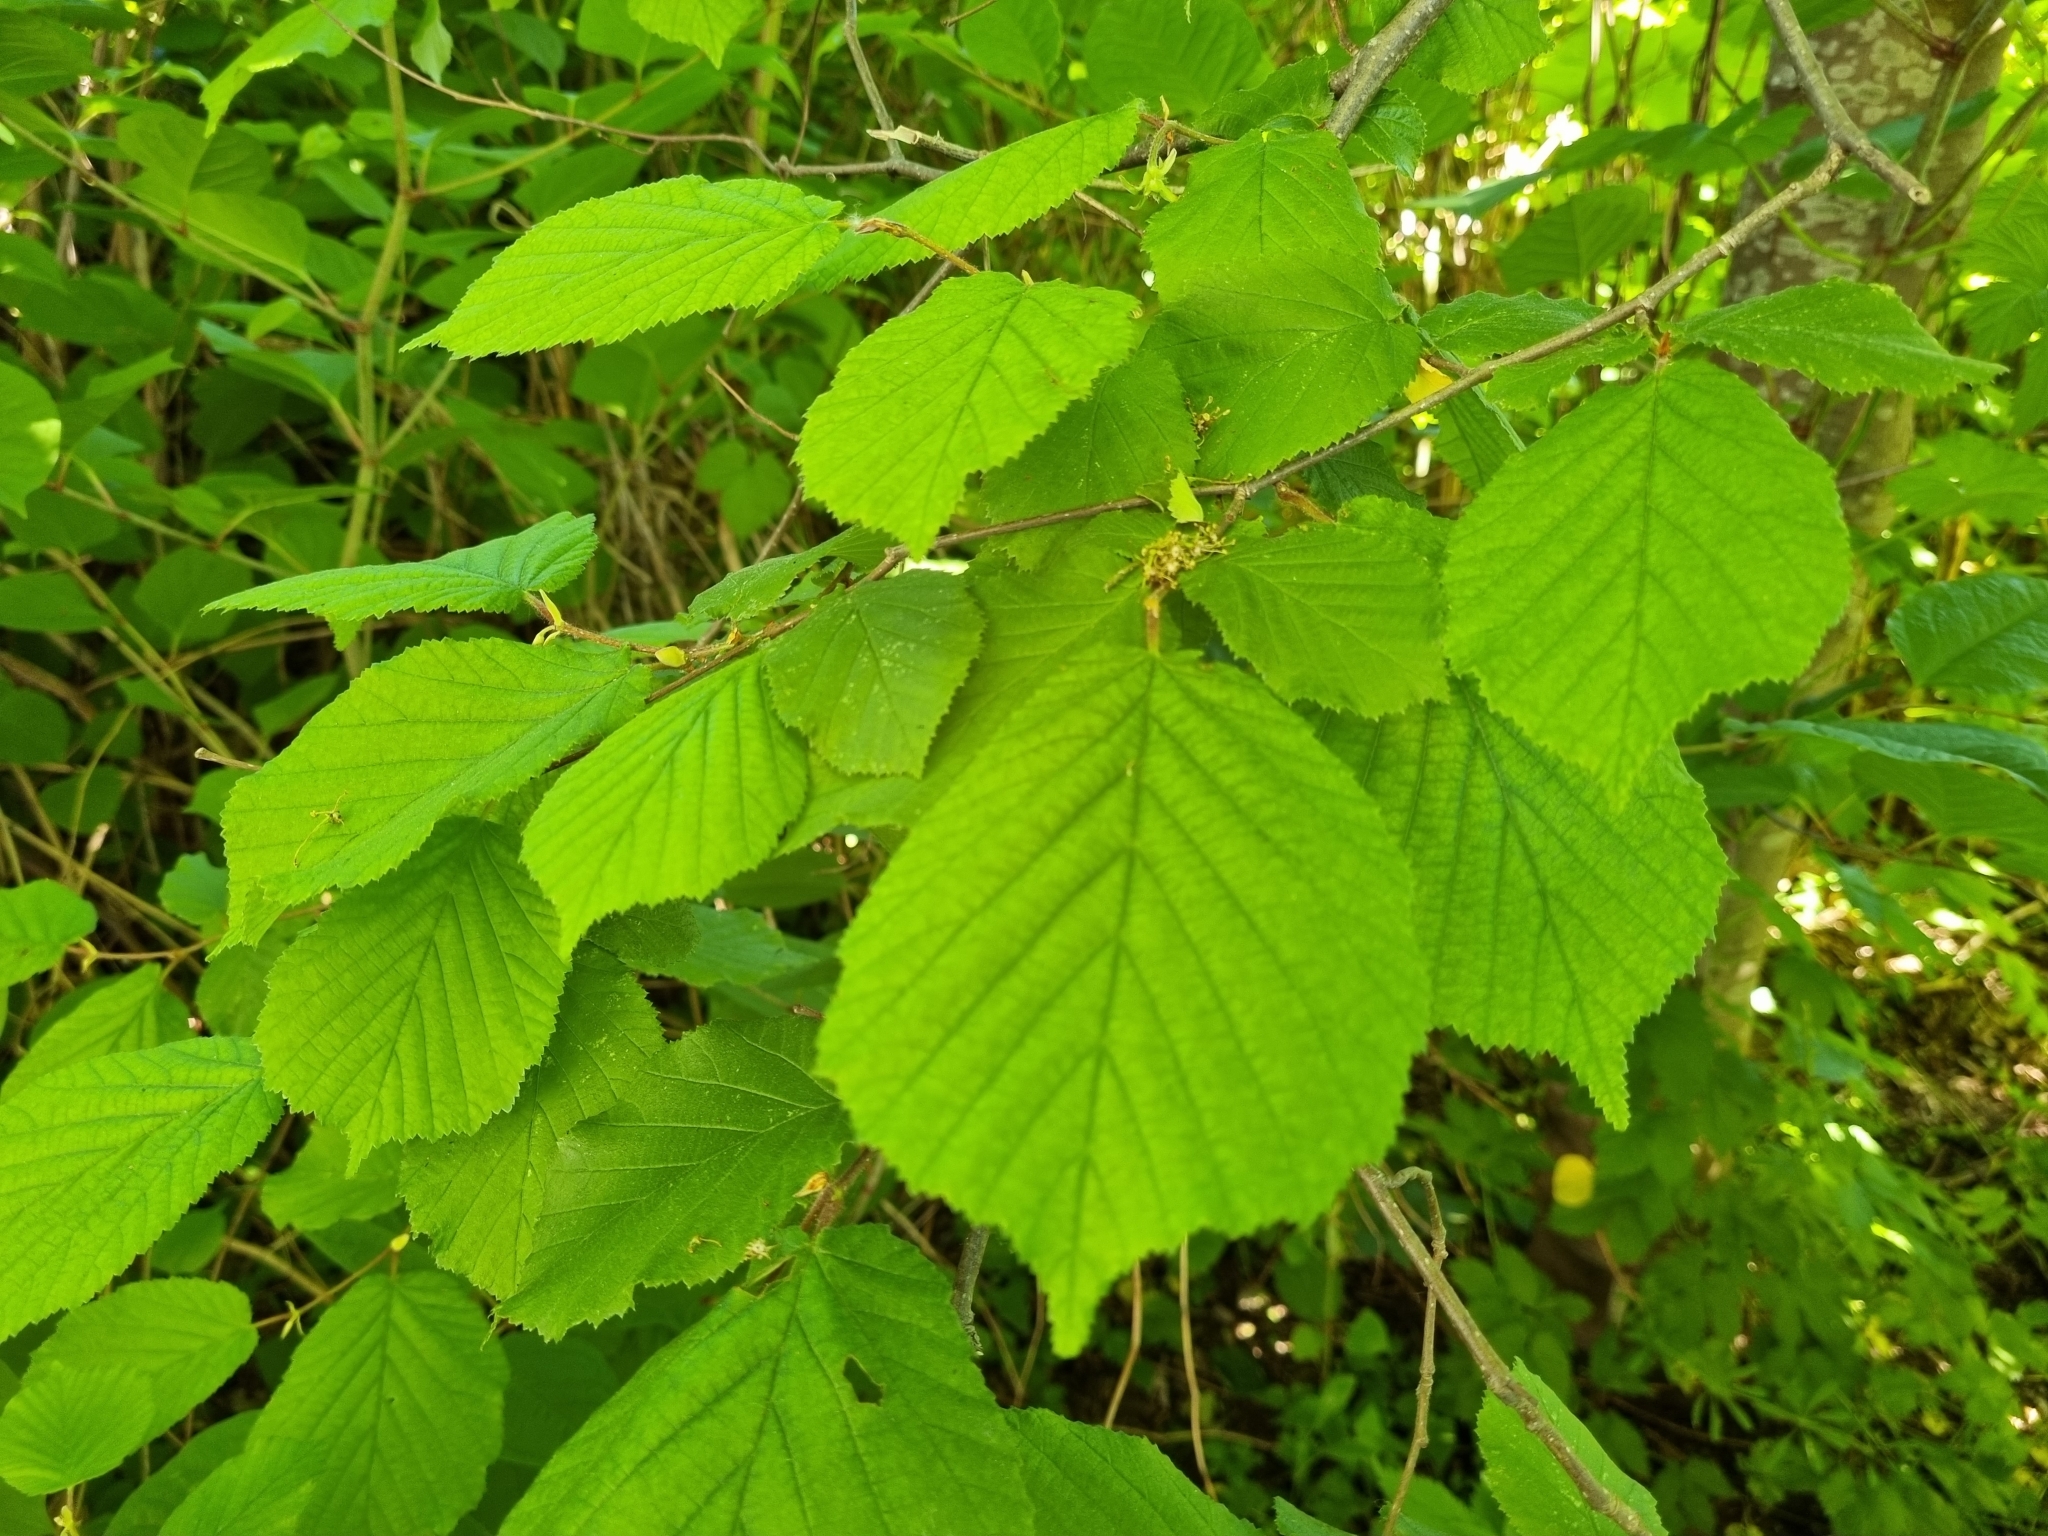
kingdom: Plantae
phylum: Tracheophyta
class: Magnoliopsida
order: Fagales
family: Betulaceae
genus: Corylus
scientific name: Corylus avellana
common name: European hazel
